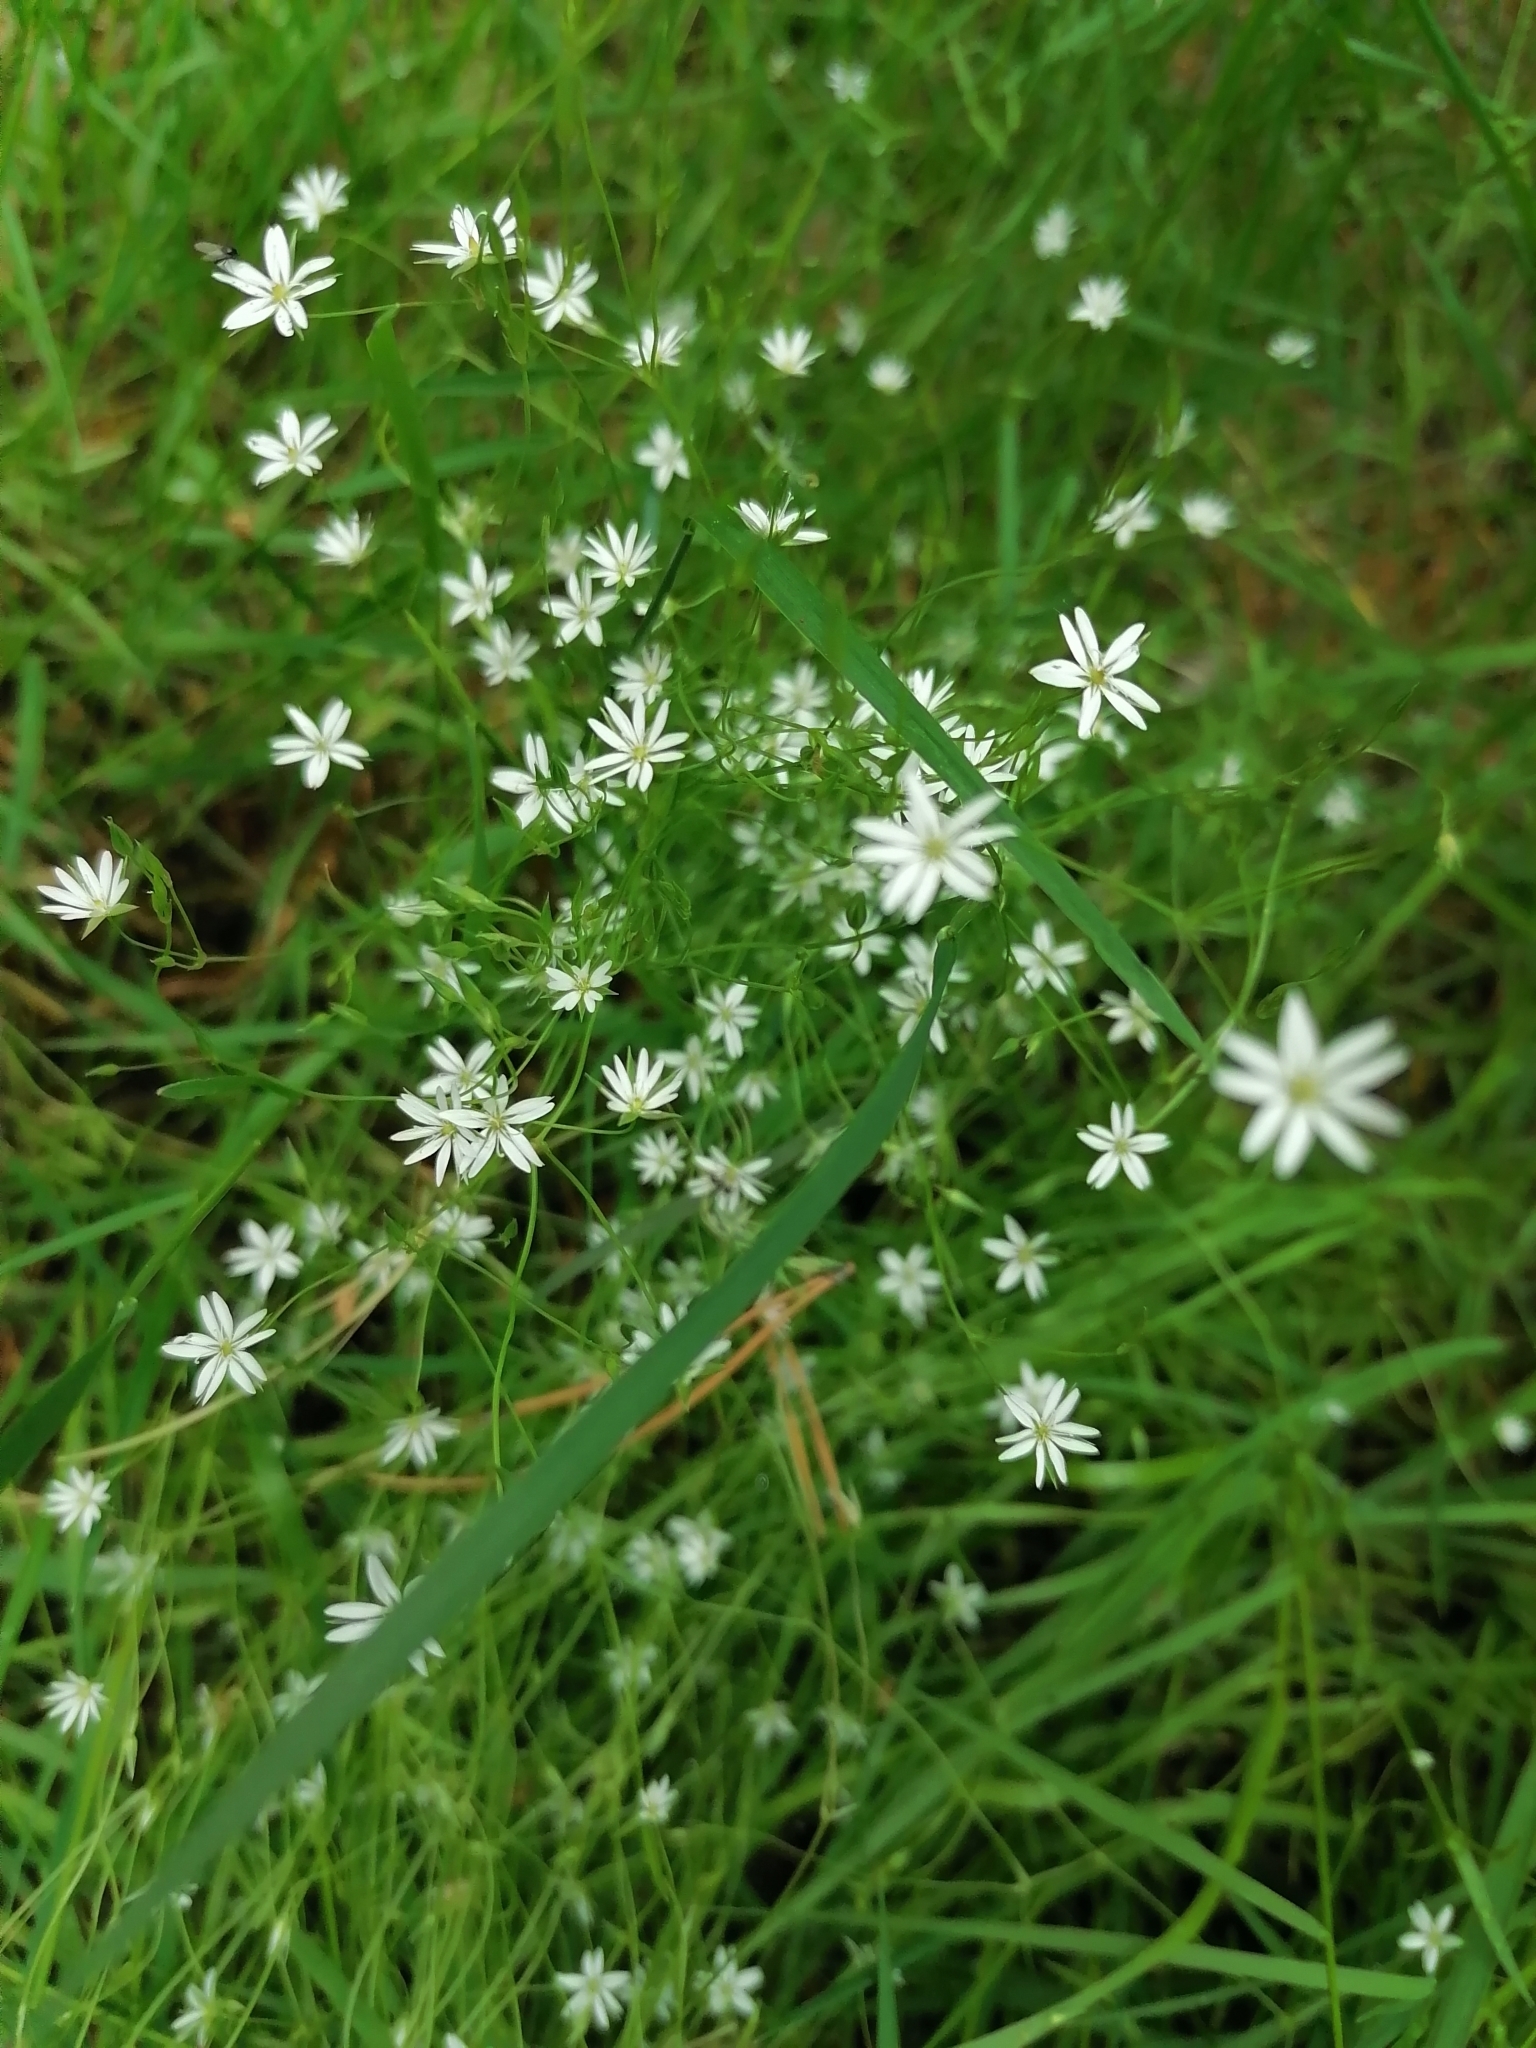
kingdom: Plantae
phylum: Tracheophyta
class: Magnoliopsida
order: Caryophyllales
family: Caryophyllaceae
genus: Stellaria
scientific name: Stellaria graminea
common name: Grass-like starwort
